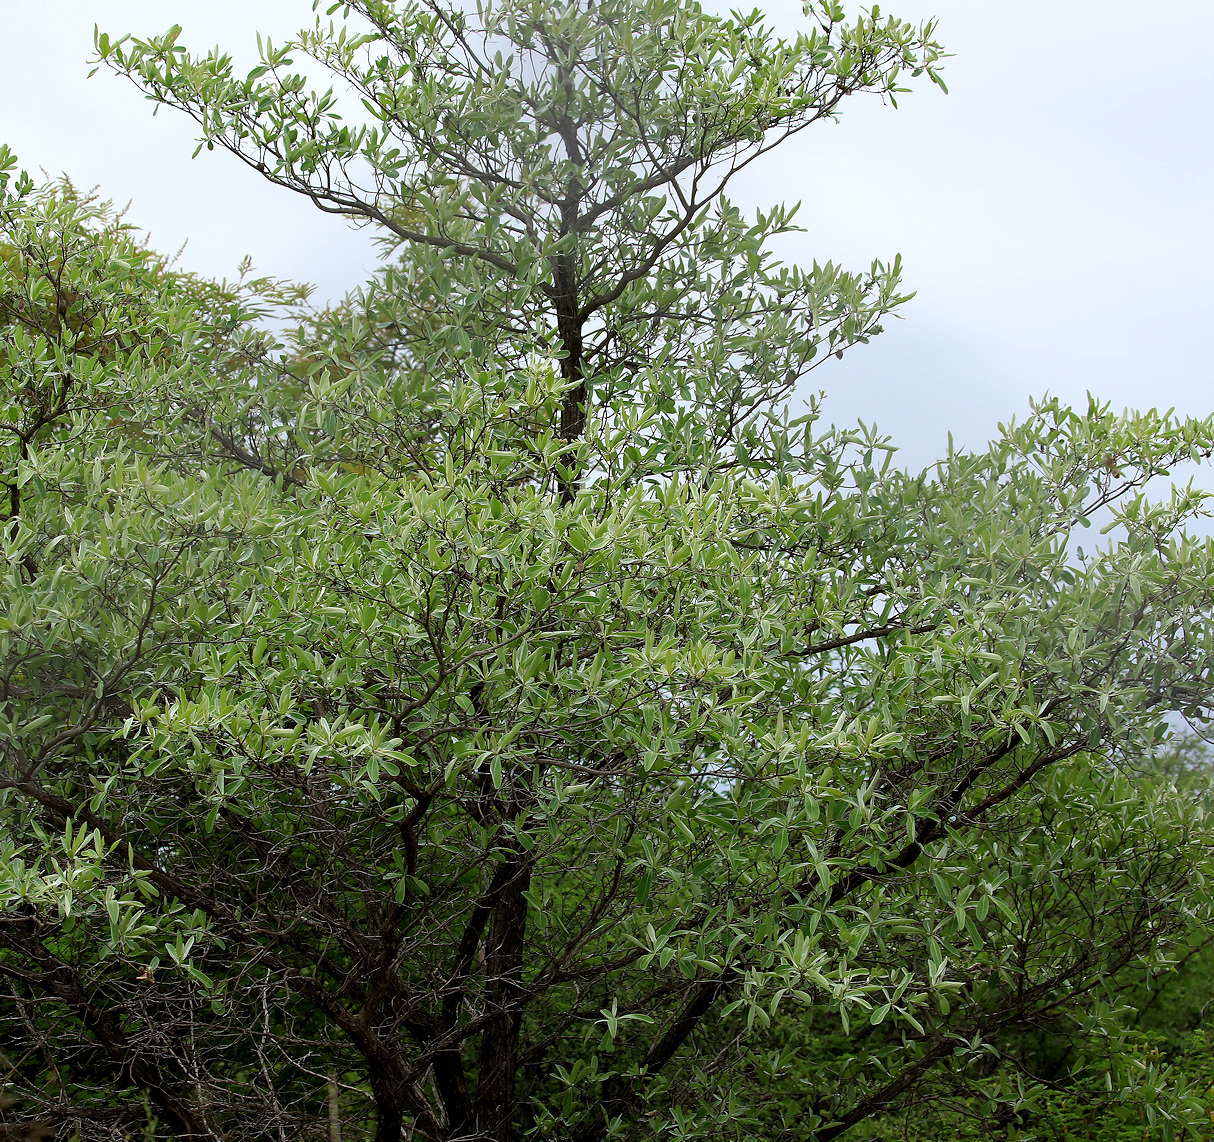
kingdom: Plantae
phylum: Tracheophyta
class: Magnoliopsida
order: Myrtales
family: Combretaceae
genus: Terminalia
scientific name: Terminalia sericea
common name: Clusterleaf
